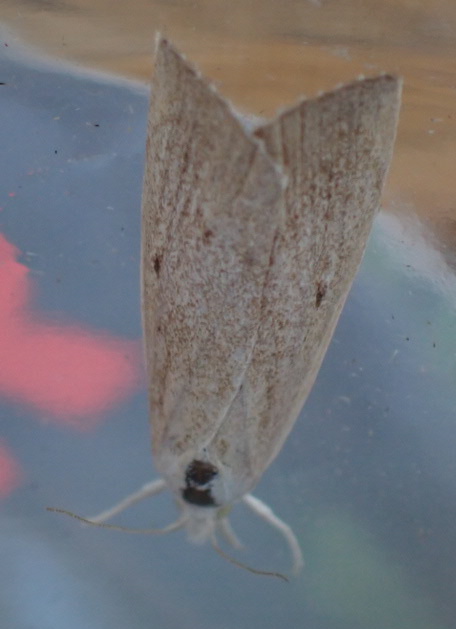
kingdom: Animalia
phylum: Arthropoda
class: Insecta
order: Lepidoptera
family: Crambidae
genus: Calamotropha
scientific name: Calamotropha paludella
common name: Bulrush veneer
